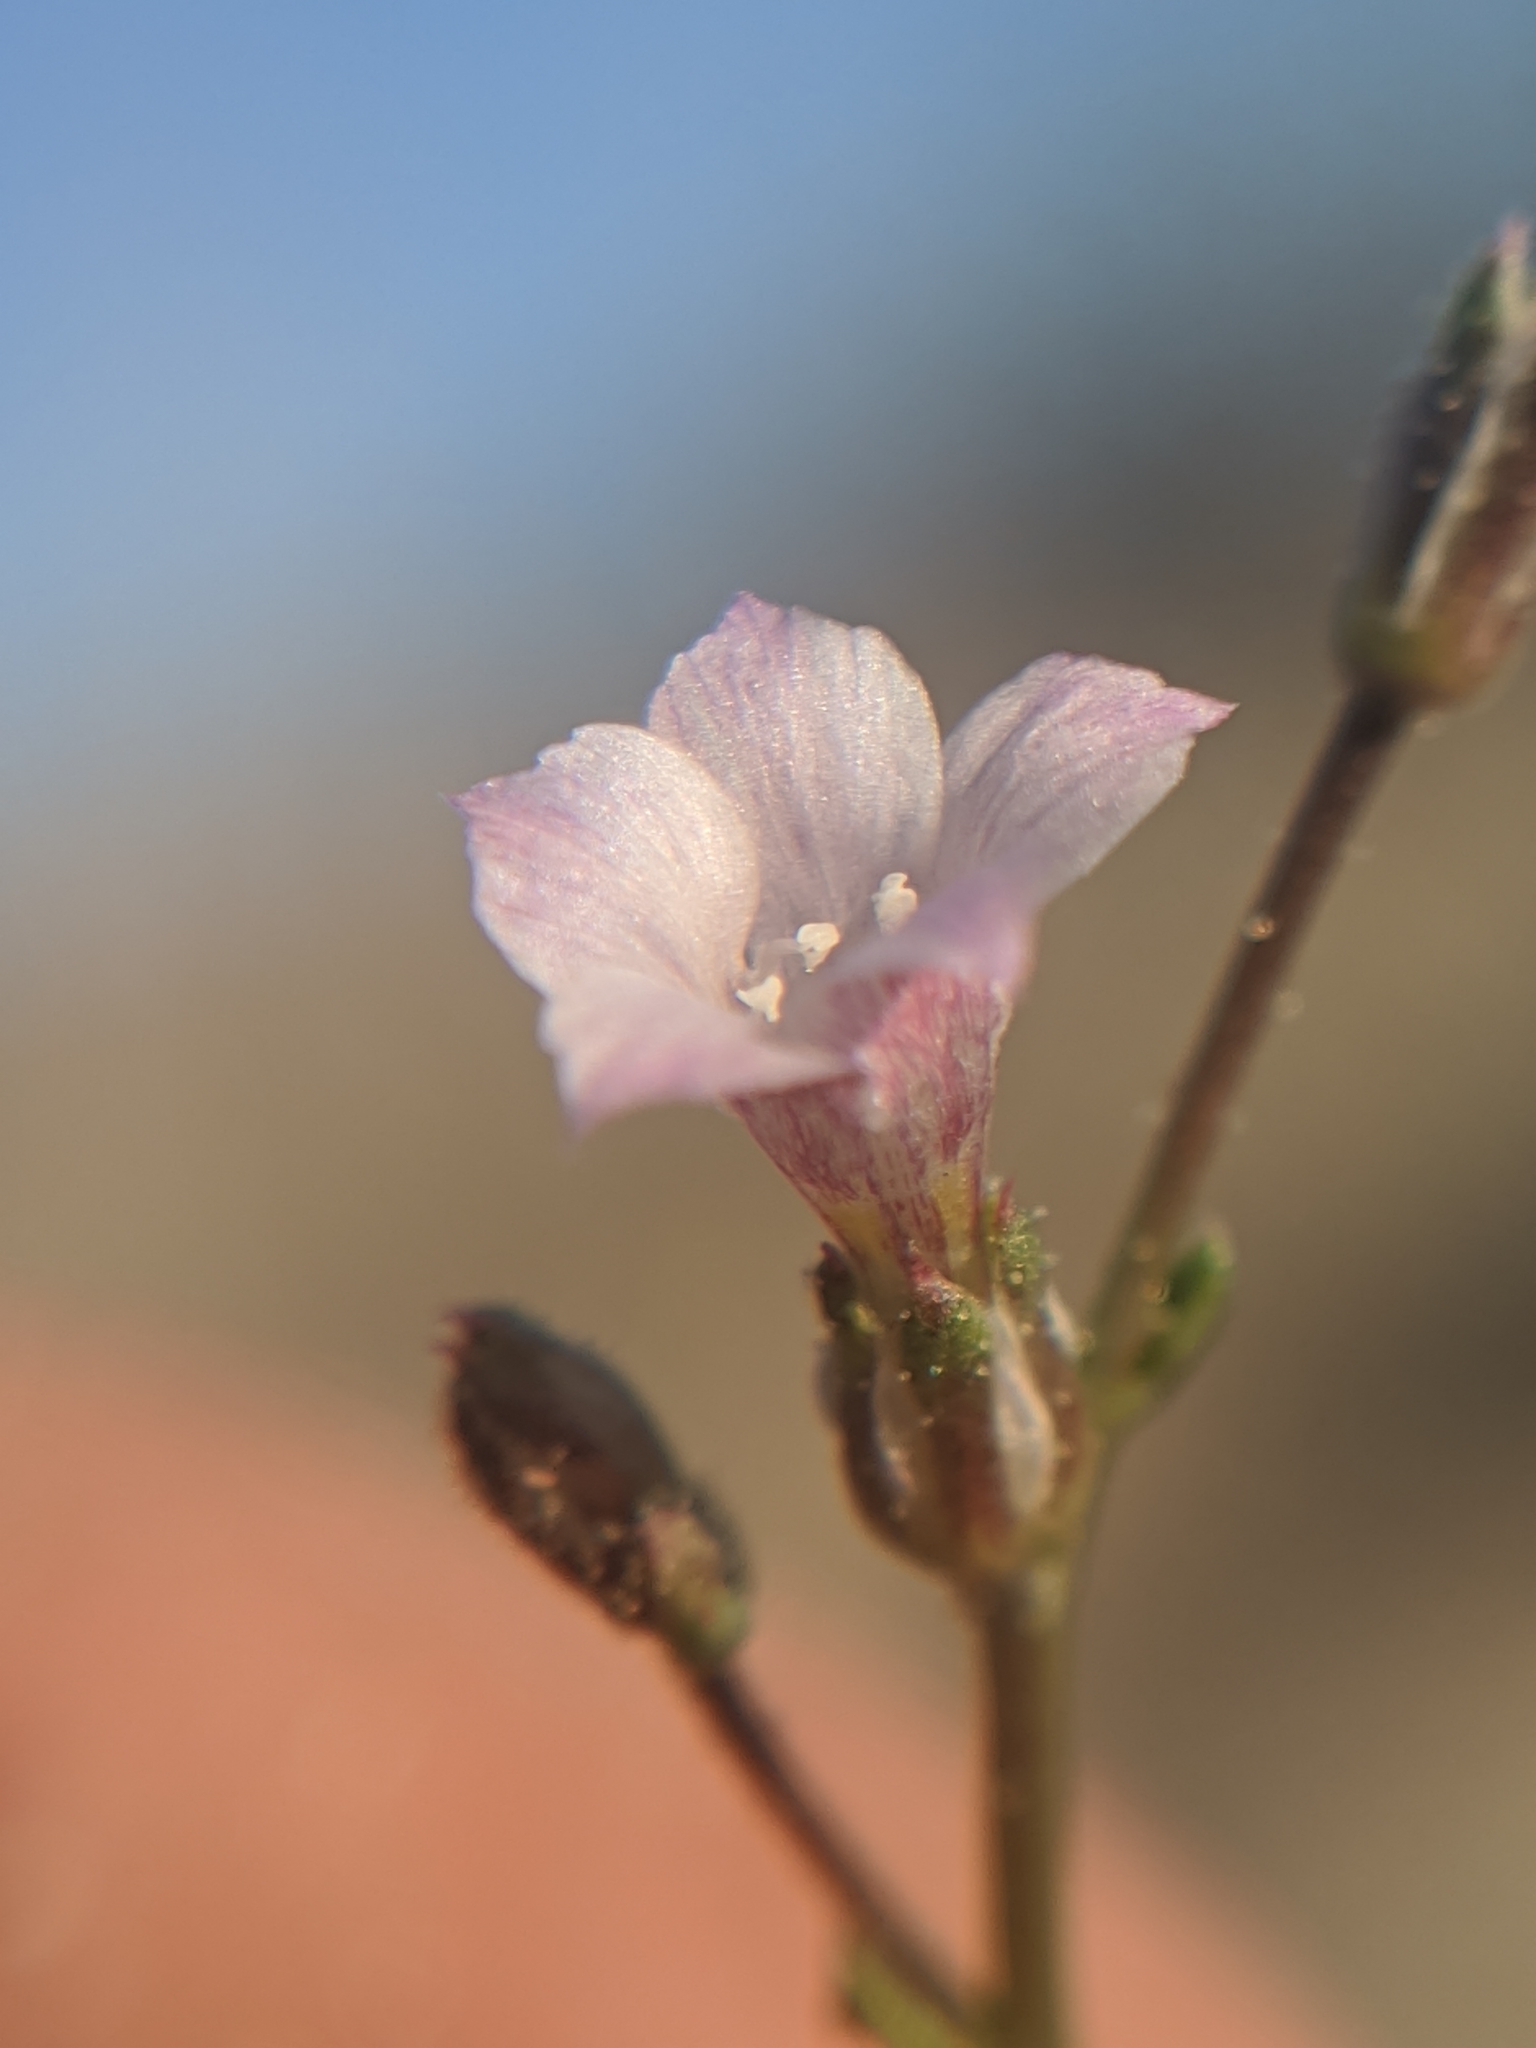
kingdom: Plantae
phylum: Tracheophyta
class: Magnoliopsida
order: Ericales
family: Polemoniaceae
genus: Aliciella
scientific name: Aliciella lottiae
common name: Lott's gilia
